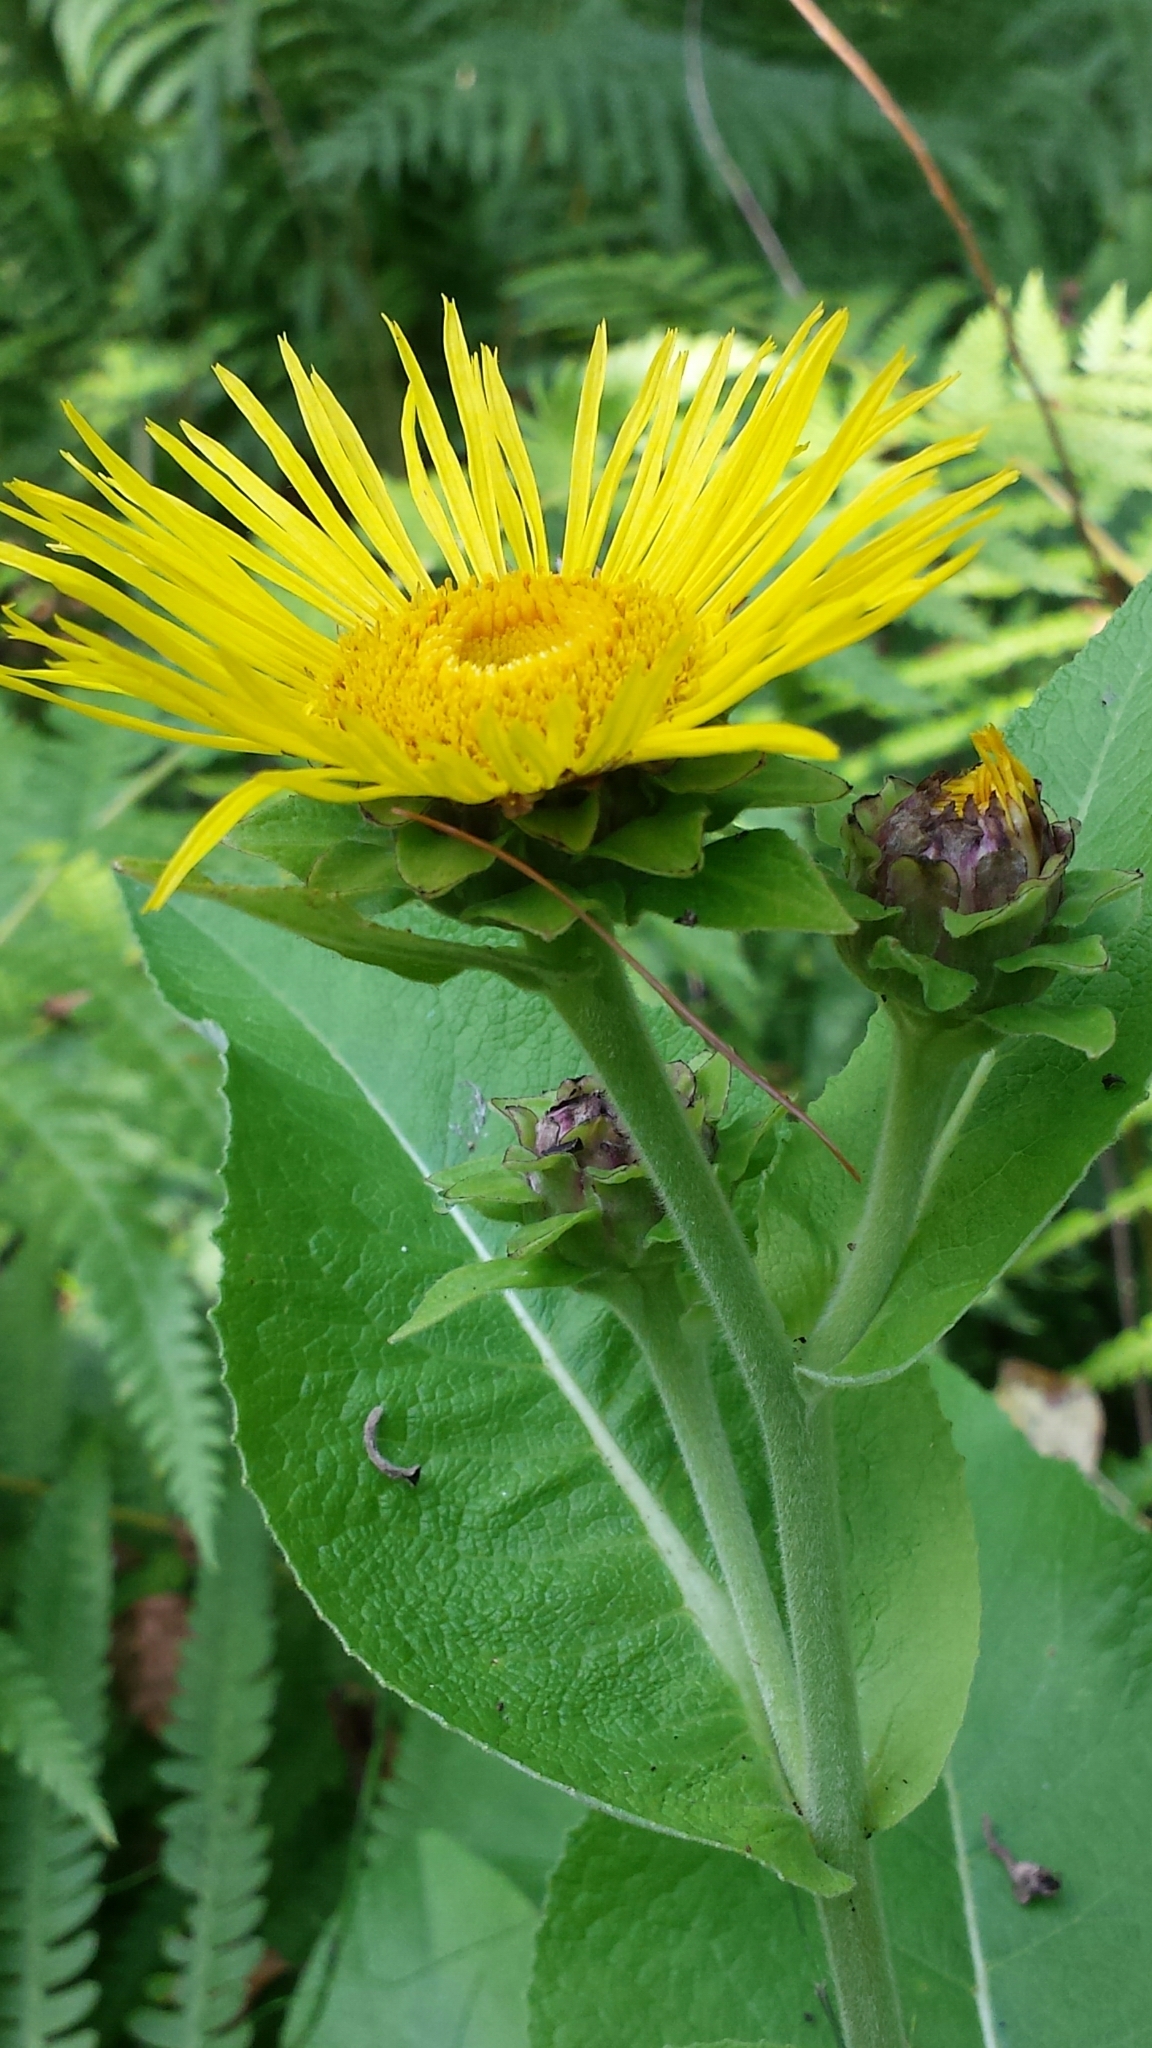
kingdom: Plantae
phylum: Tracheophyta
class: Magnoliopsida
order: Asterales
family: Asteraceae
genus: Inula
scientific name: Inula helenium
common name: Elecampane
